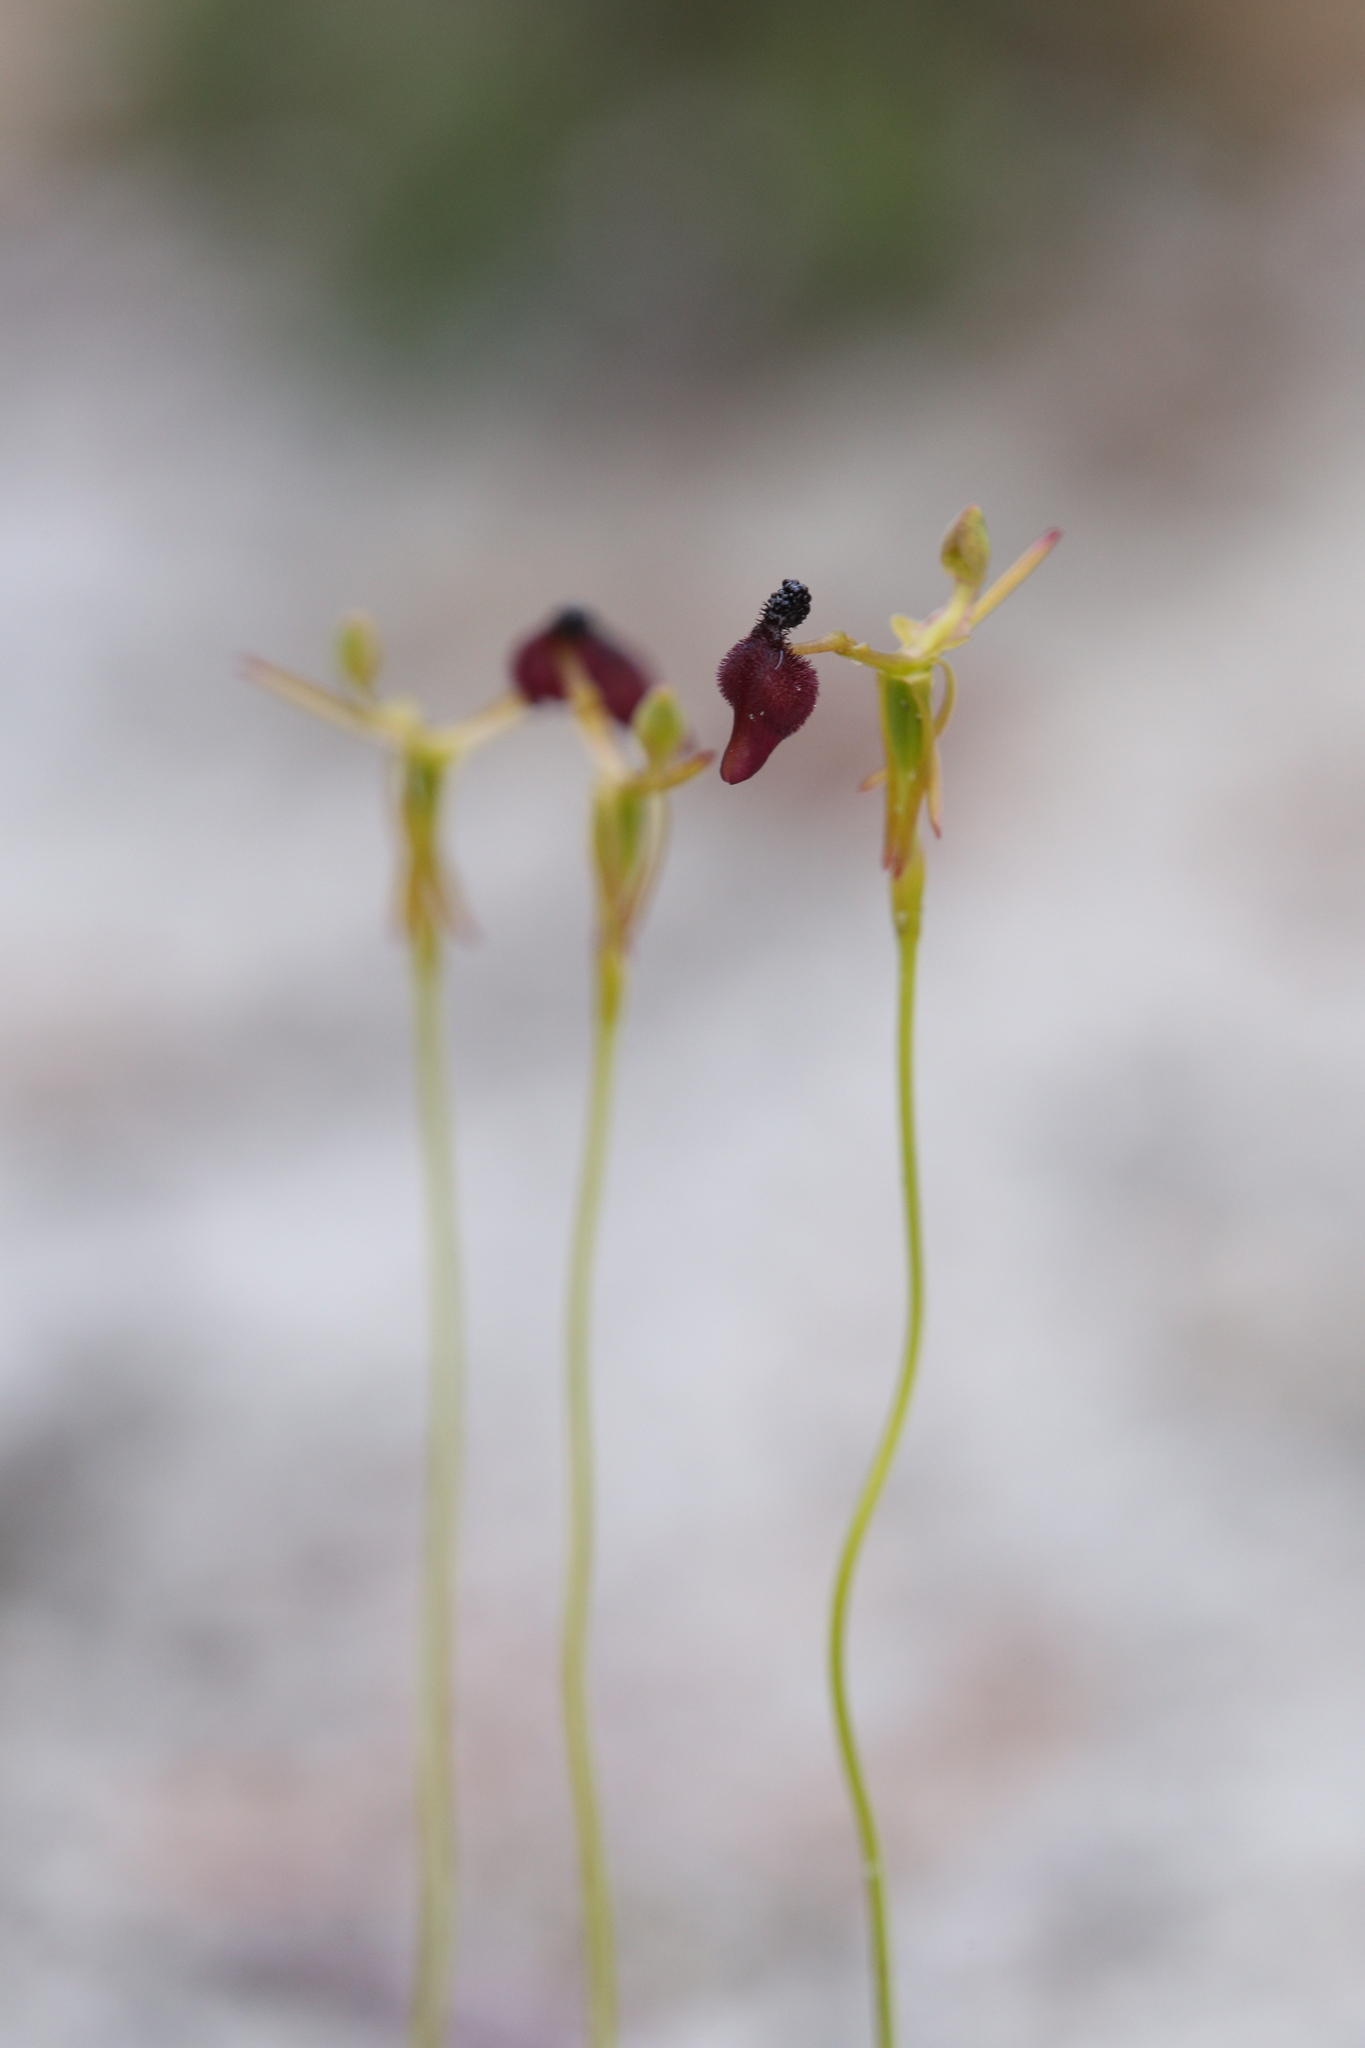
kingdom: Plantae
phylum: Tracheophyta
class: Liliopsida
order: Asparagales
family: Orchidaceae
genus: Drakaea
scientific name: Drakaea glyptodon
